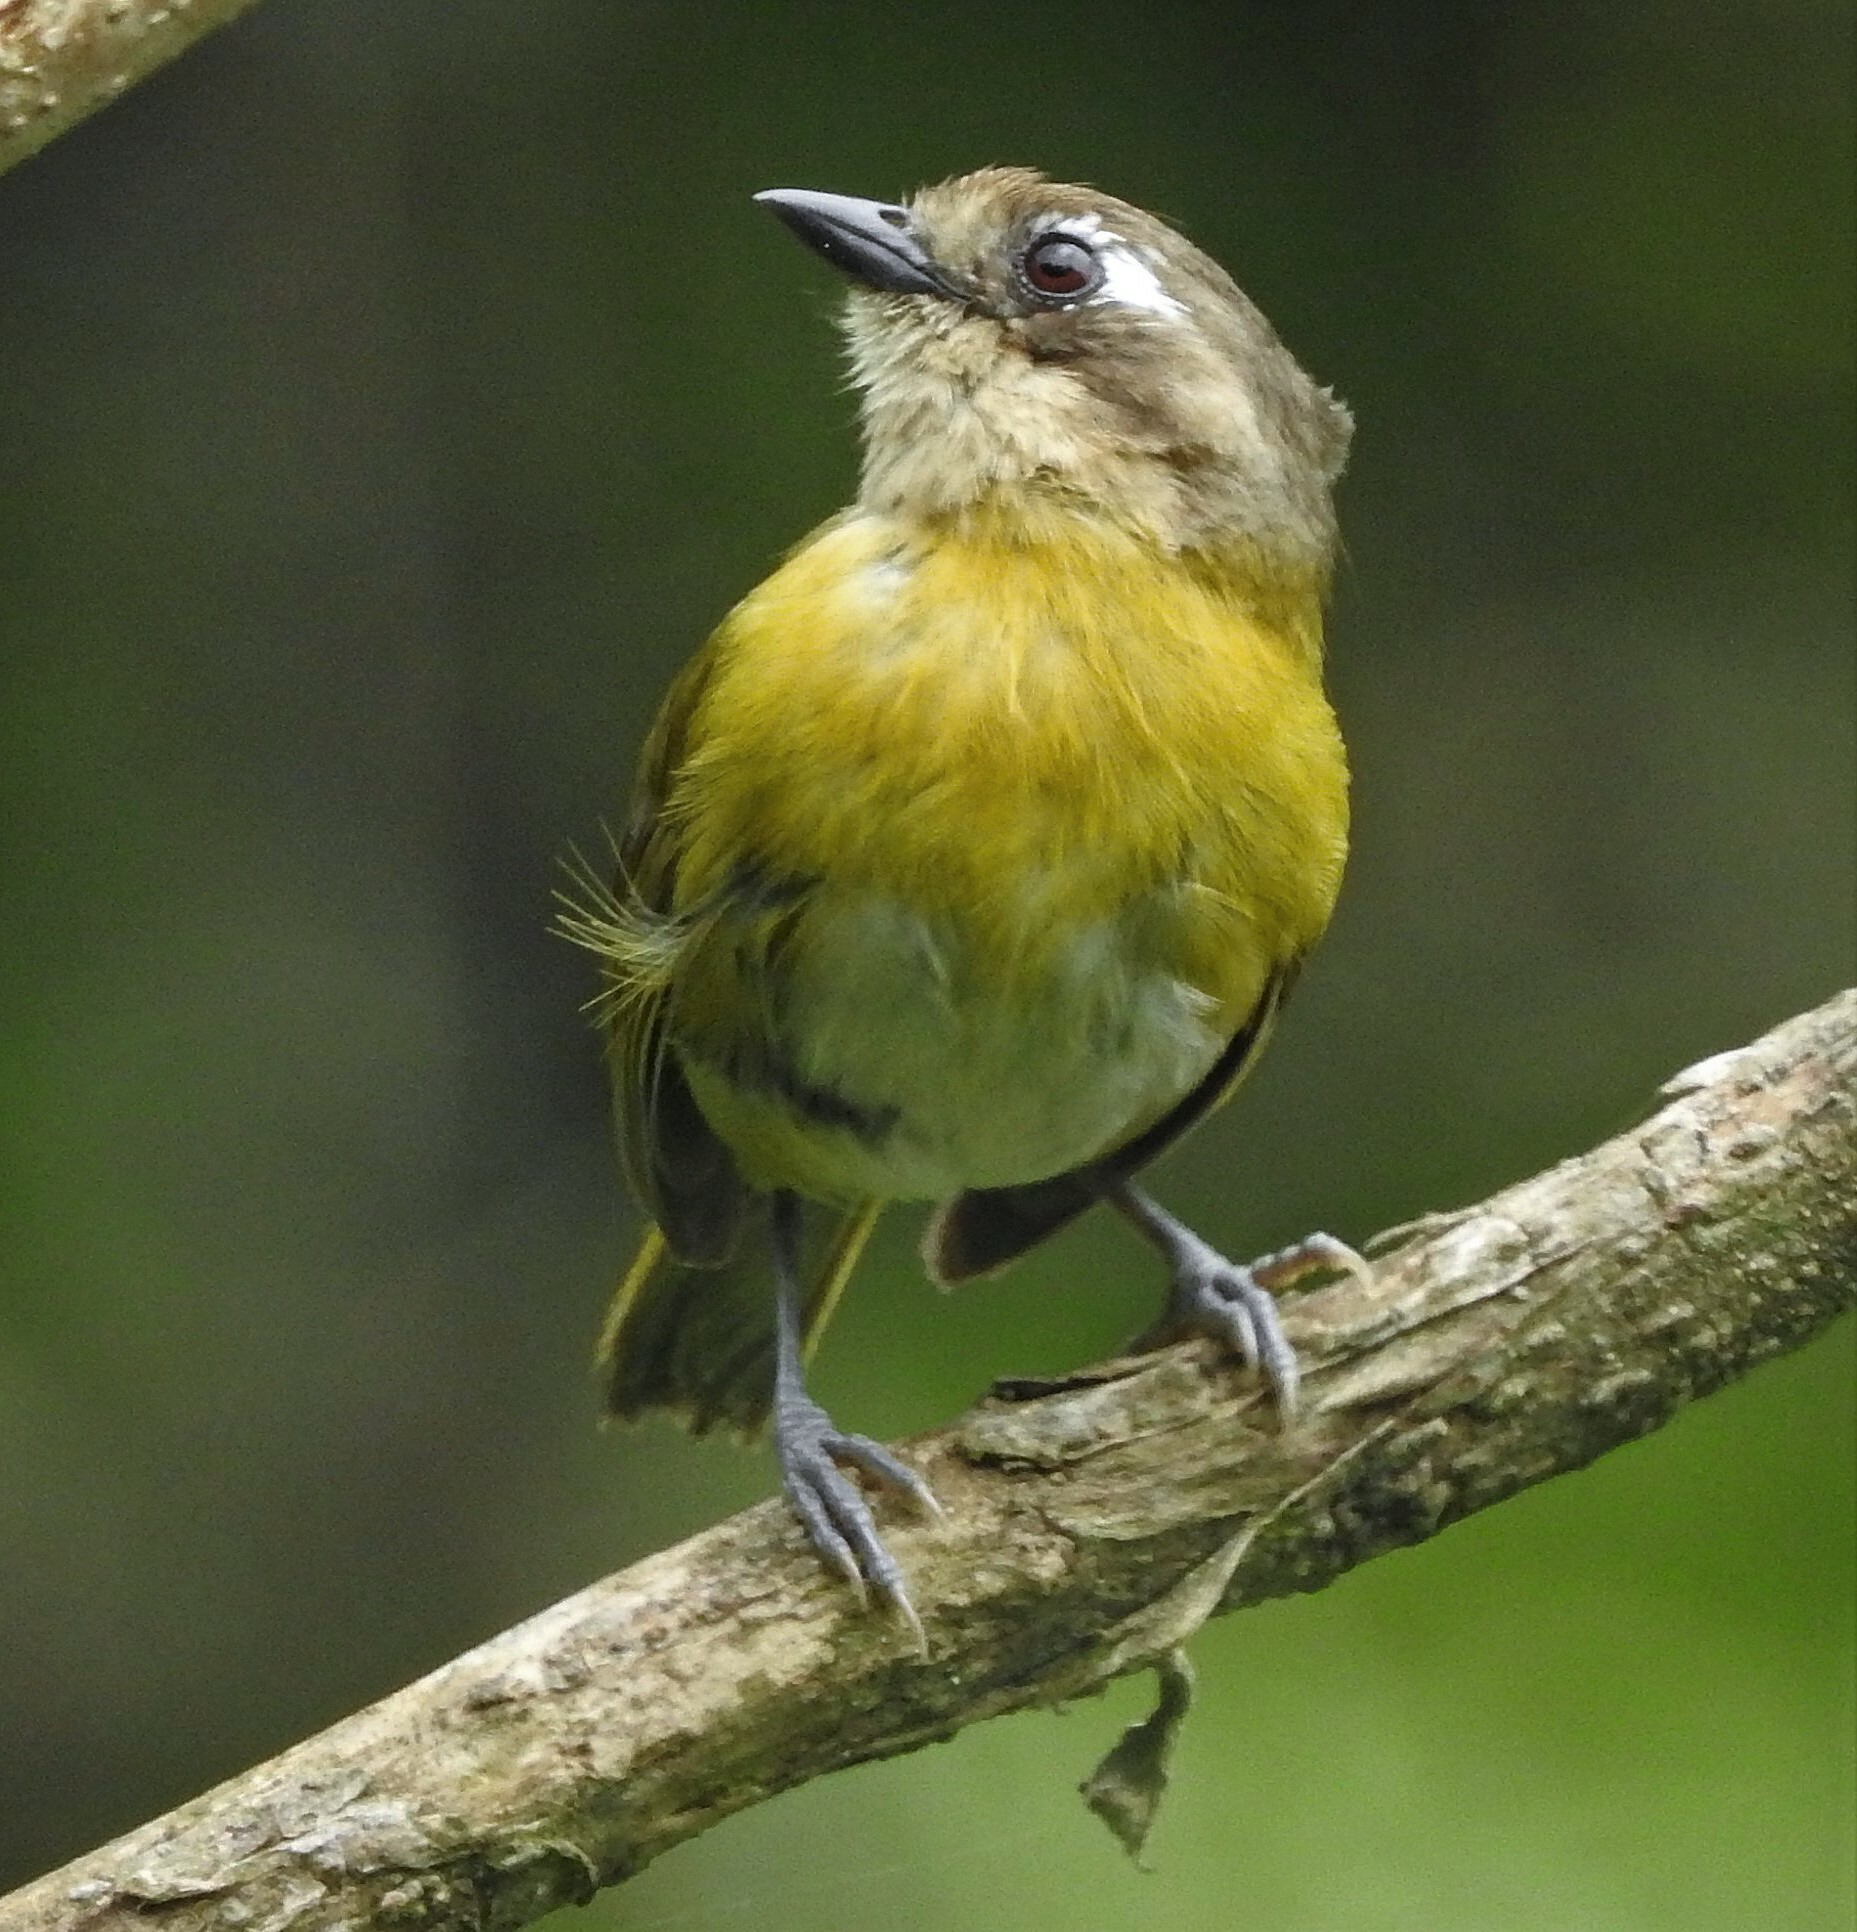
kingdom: Animalia
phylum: Chordata
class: Aves
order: Passeriformes
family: Passerellidae
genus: Chlorospingus
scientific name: Chlorospingus flavopectus
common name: Common chlorospingus
